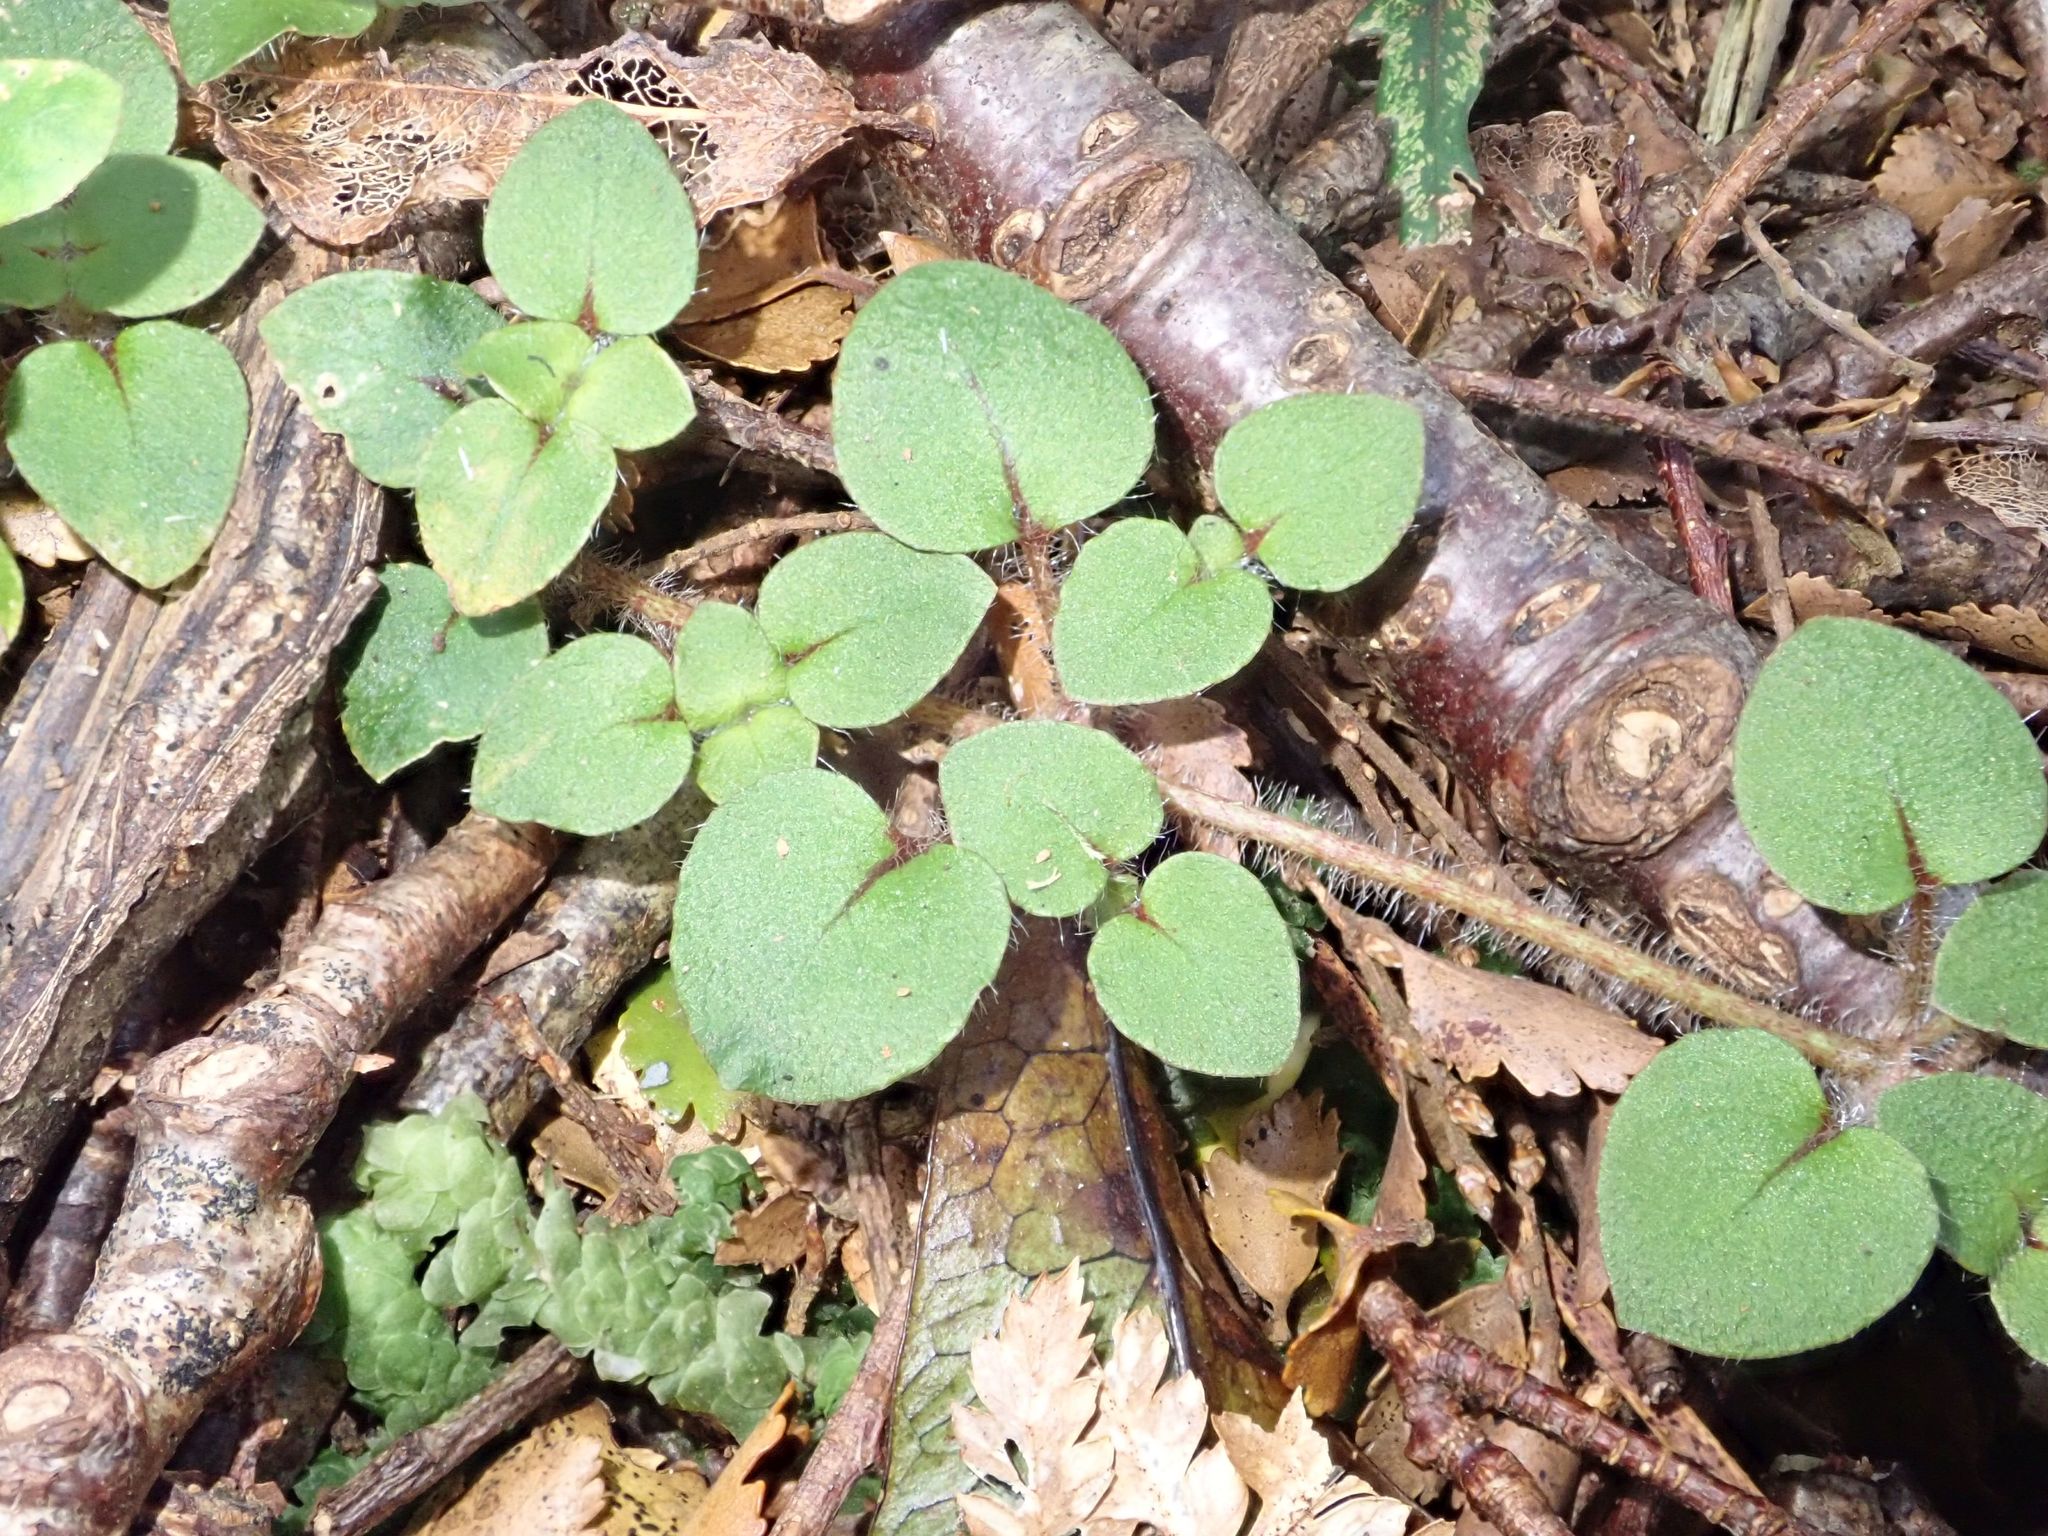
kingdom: Plantae
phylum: Tracheophyta
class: Magnoliopsida
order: Gentianales
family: Rubiaceae
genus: Nertera
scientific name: Nertera villosa
